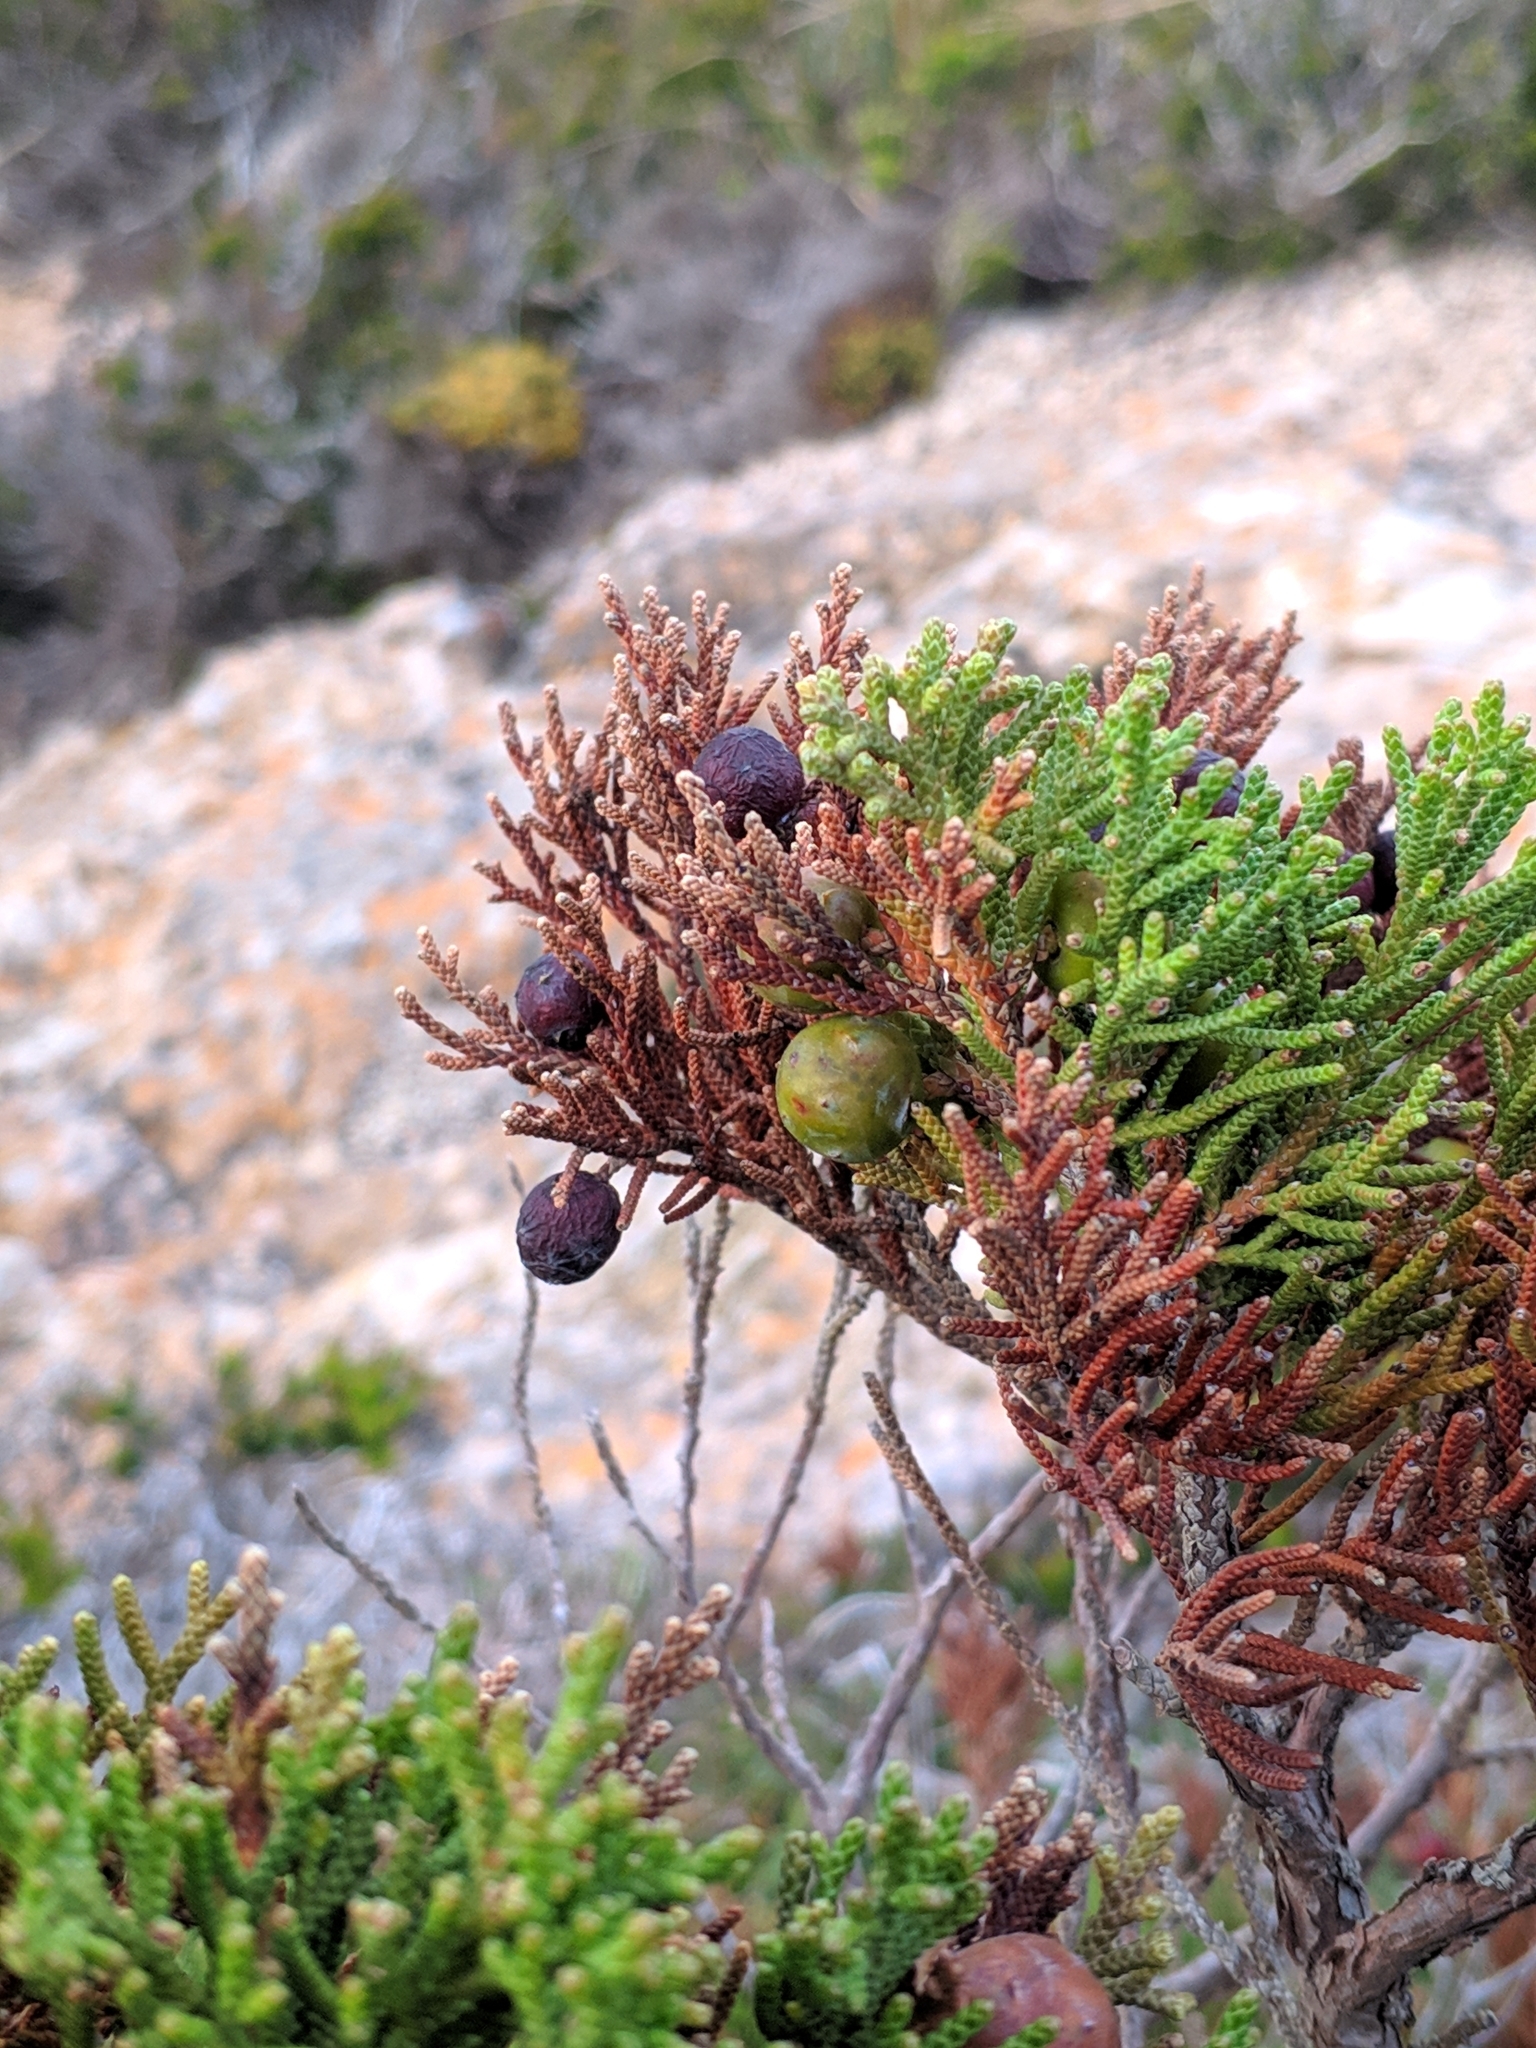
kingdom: Plantae
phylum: Tracheophyta
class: Pinopsida
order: Pinales
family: Cupressaceae
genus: Juniperus
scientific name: Juniperus phoenicea
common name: Phoenician juniper
